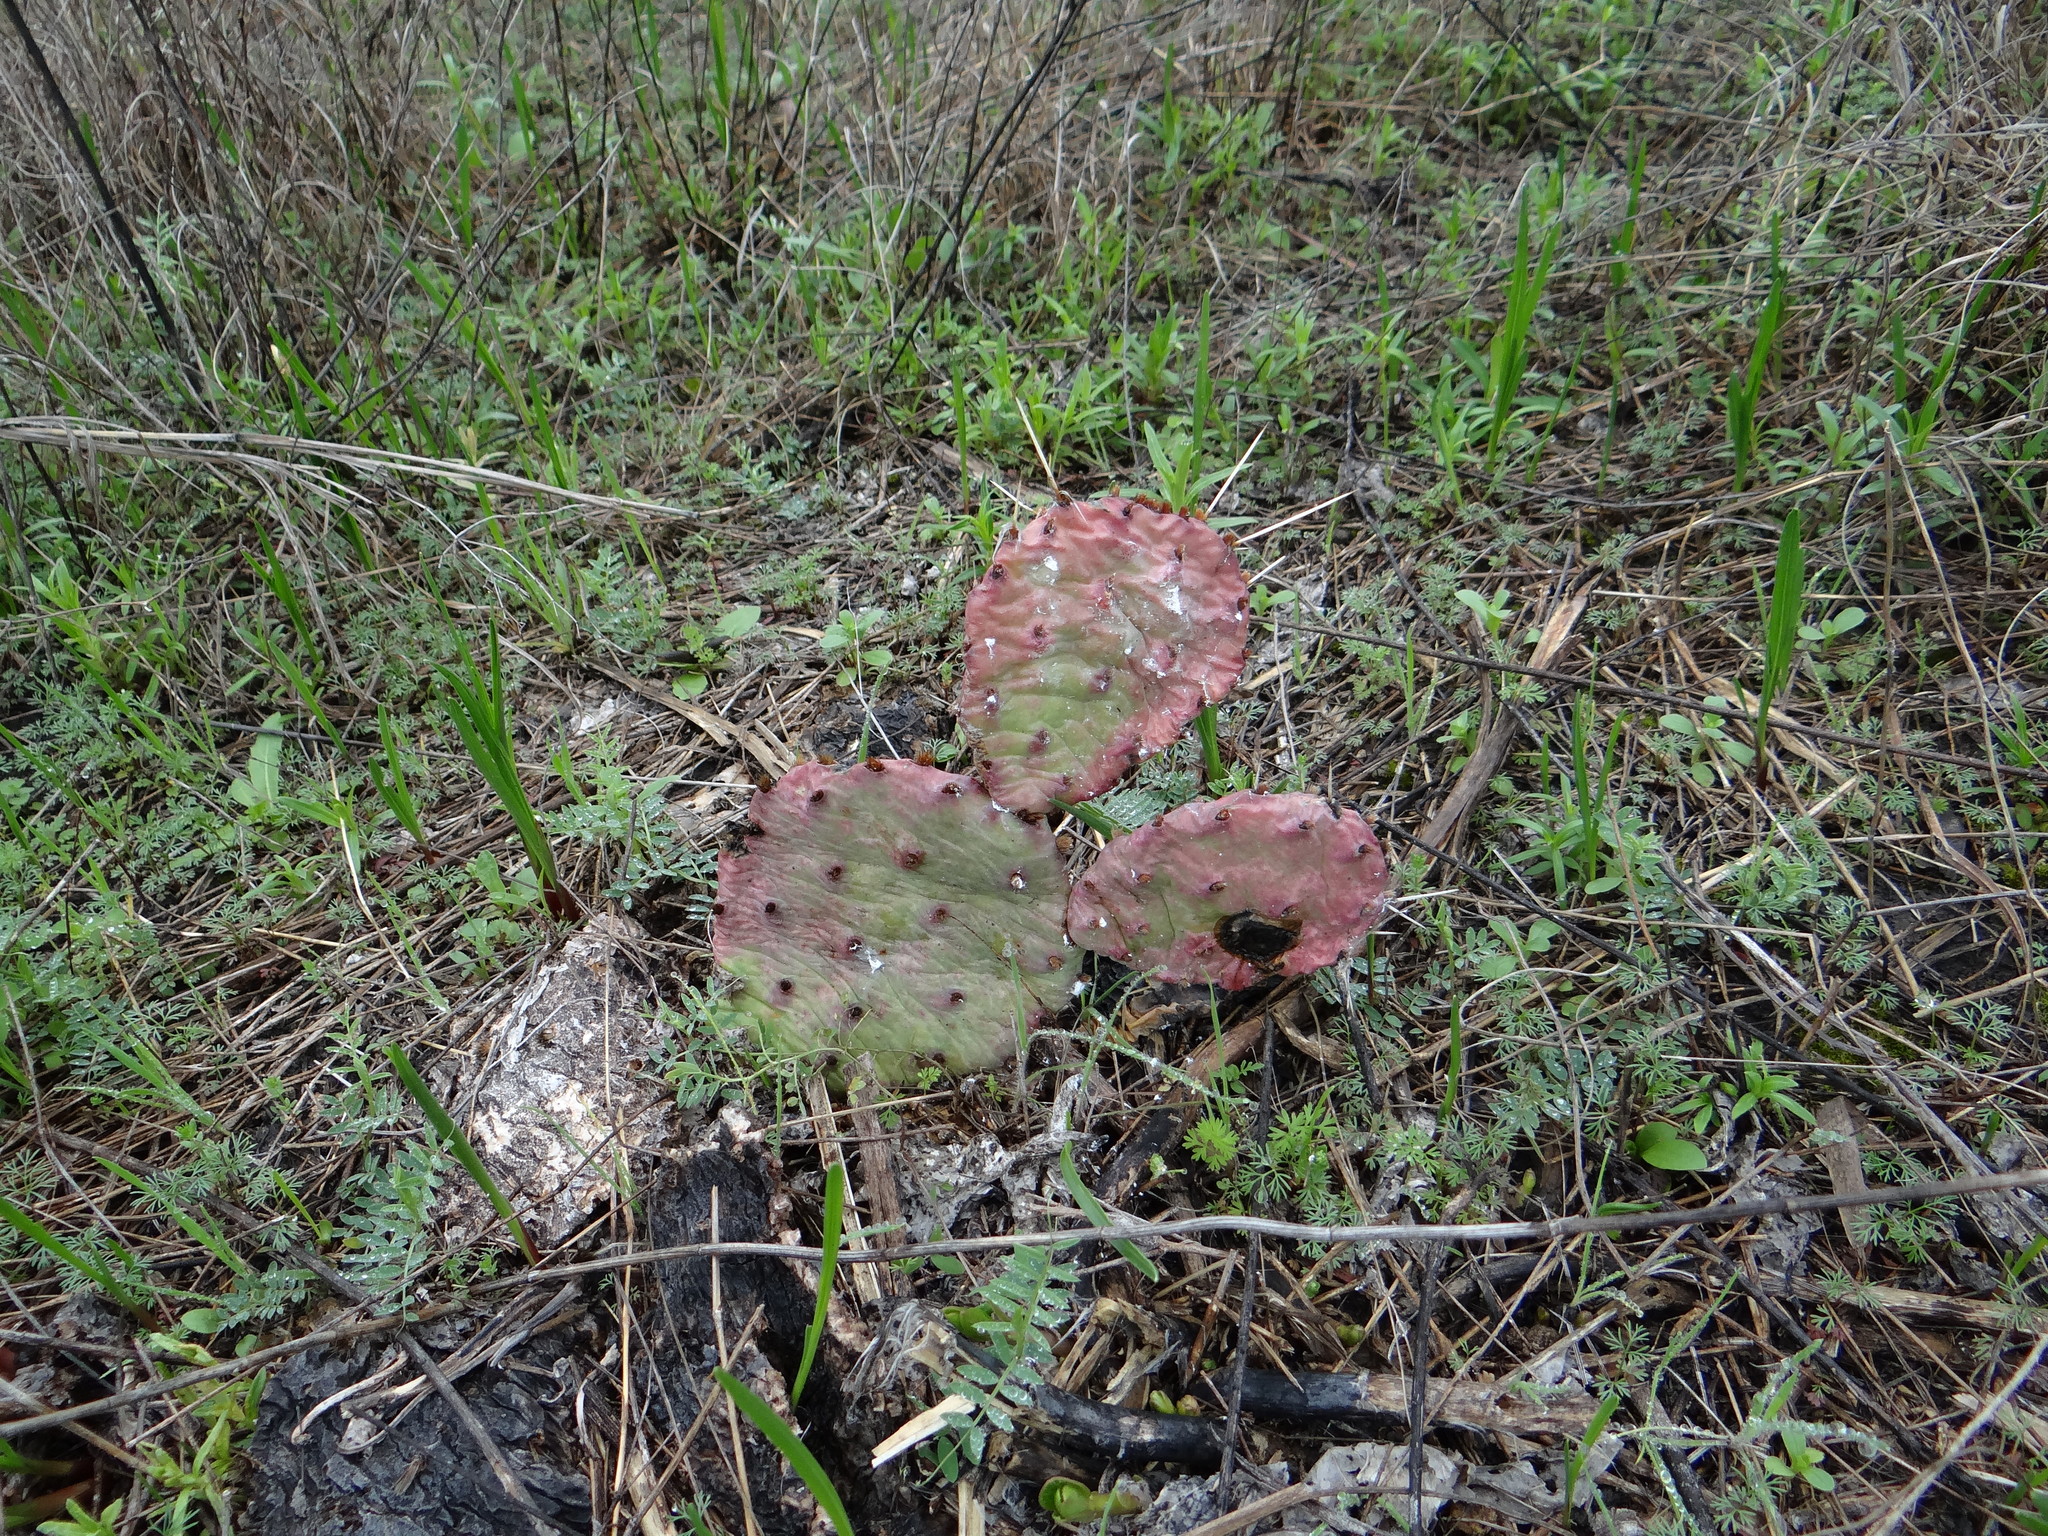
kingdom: Plantae
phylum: Tracheophyta
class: Magnoliopsida
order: Caryophyllales
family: Cactaceae
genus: Opuntia
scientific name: Opuntia macrorhiza
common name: Grassland pricklypear
